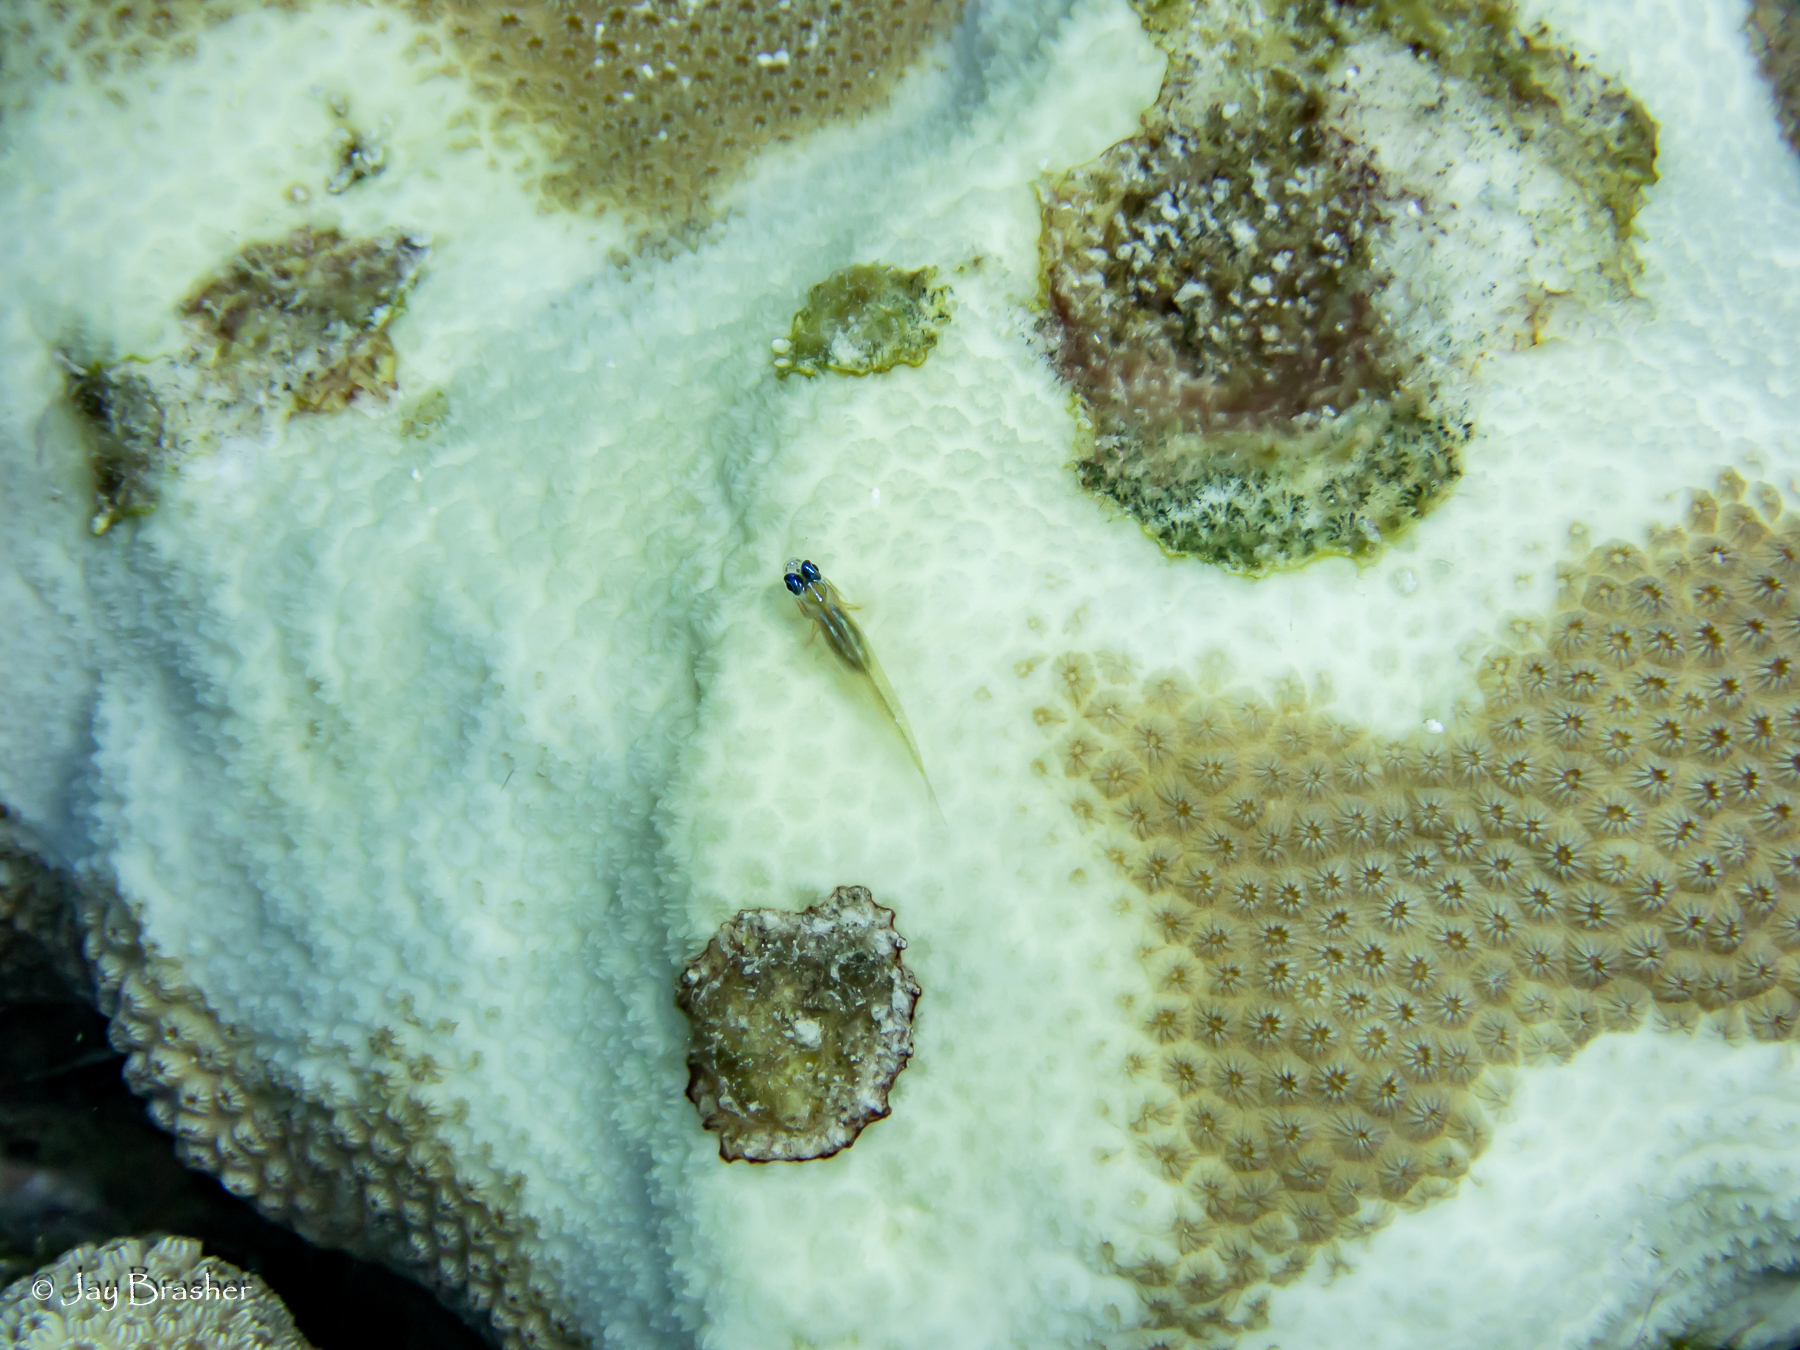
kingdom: Animalia
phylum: Chordata
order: Perciformes
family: Gobiidae
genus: Coryphopterus
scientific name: Coryphopterus lipernes
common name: Peppermint goby
